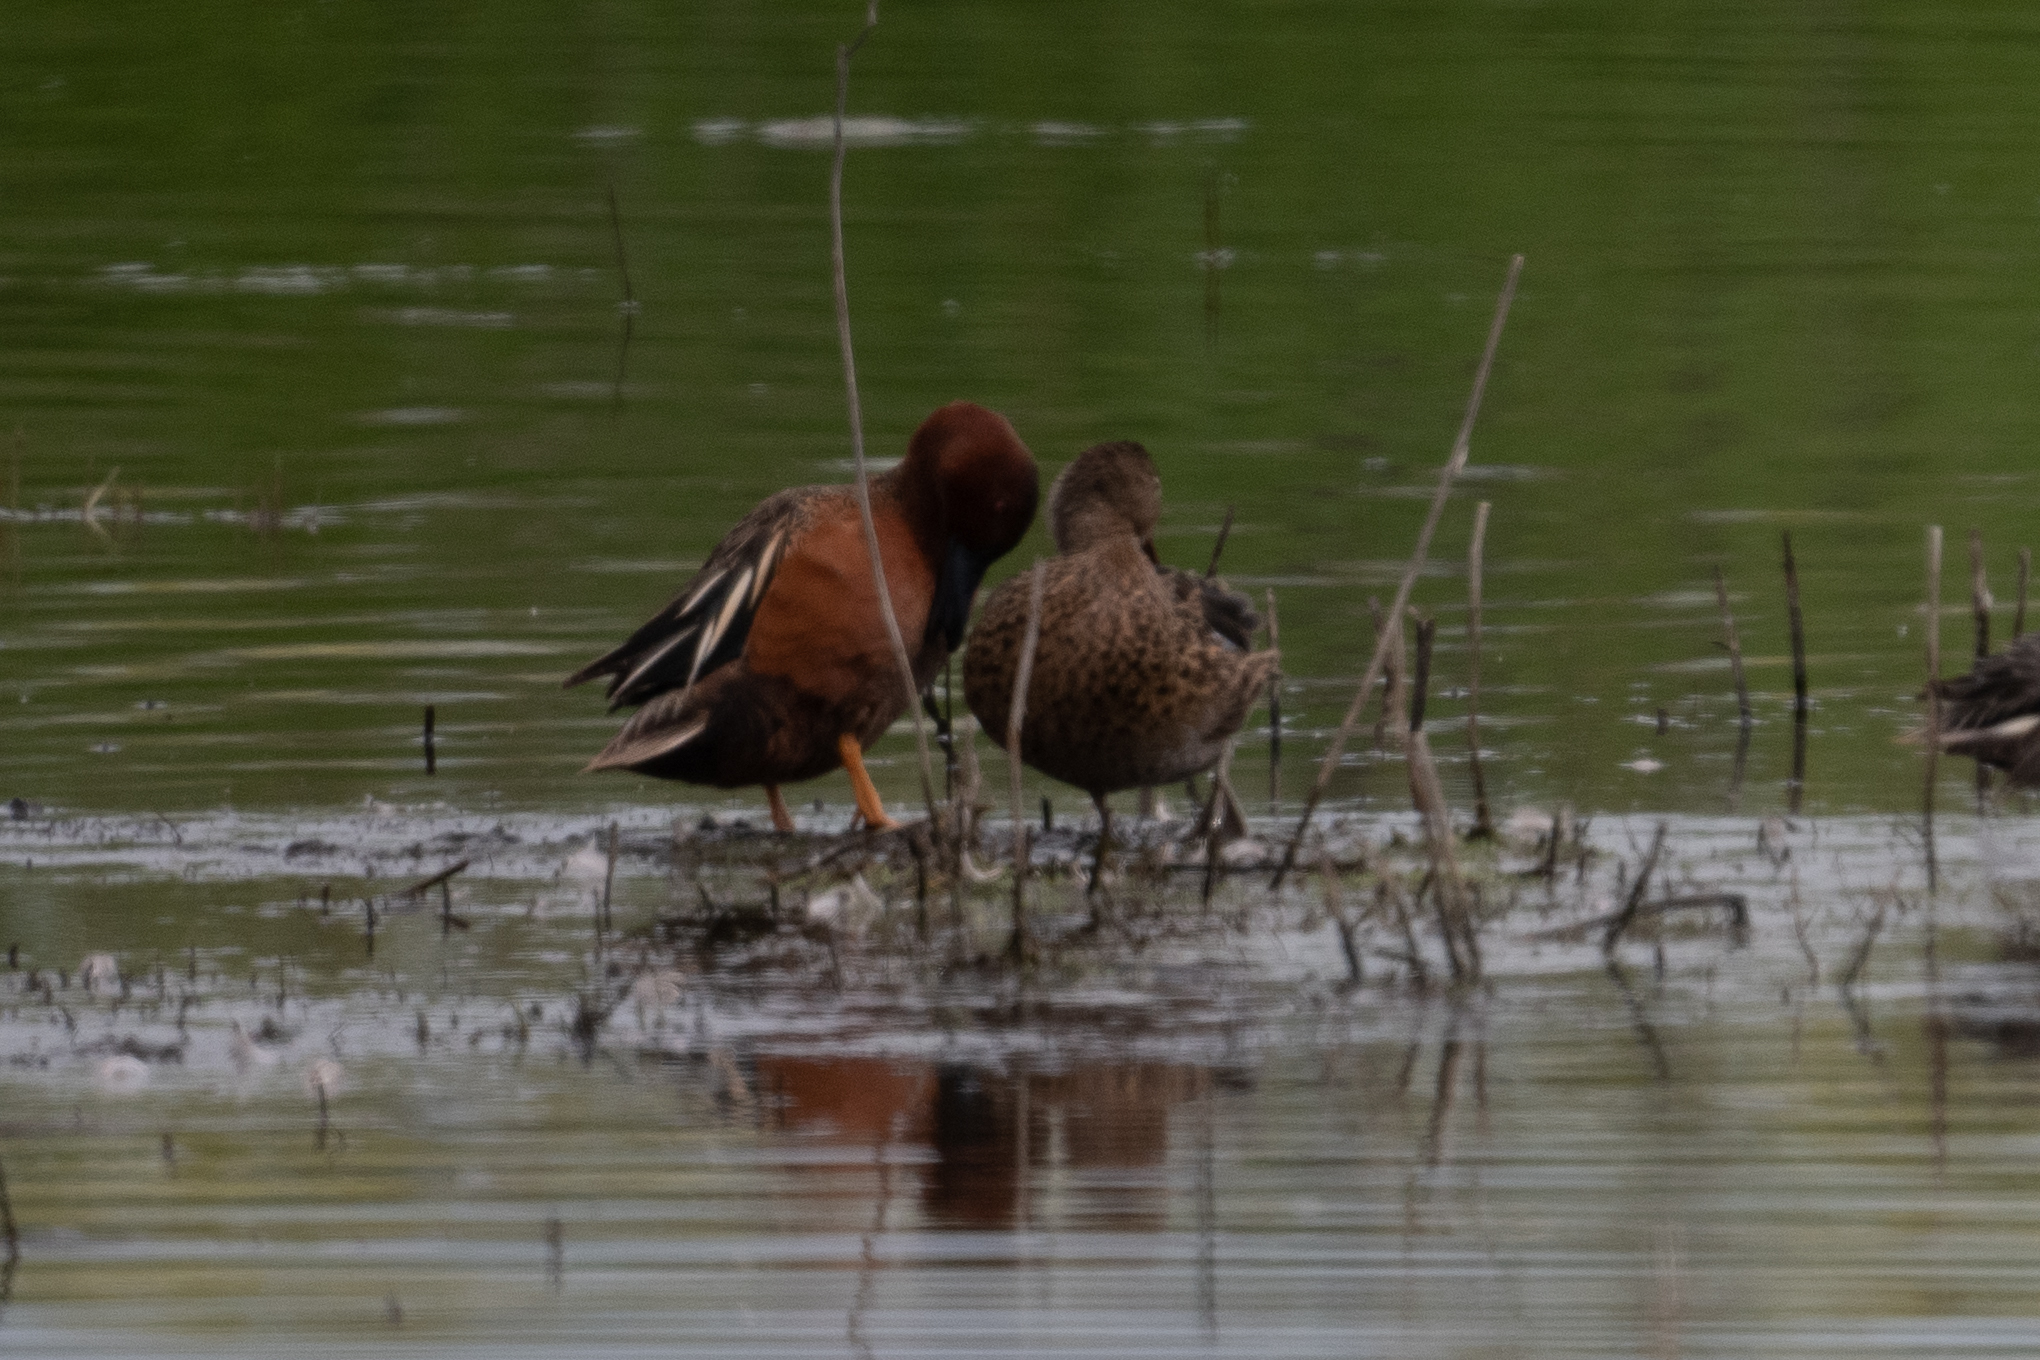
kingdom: Animalia
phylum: Chordata
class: Aves
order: Anseriformes
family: Anatidae
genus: Spatula
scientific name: Spatula cyanoptera
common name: Cinnamon teal
